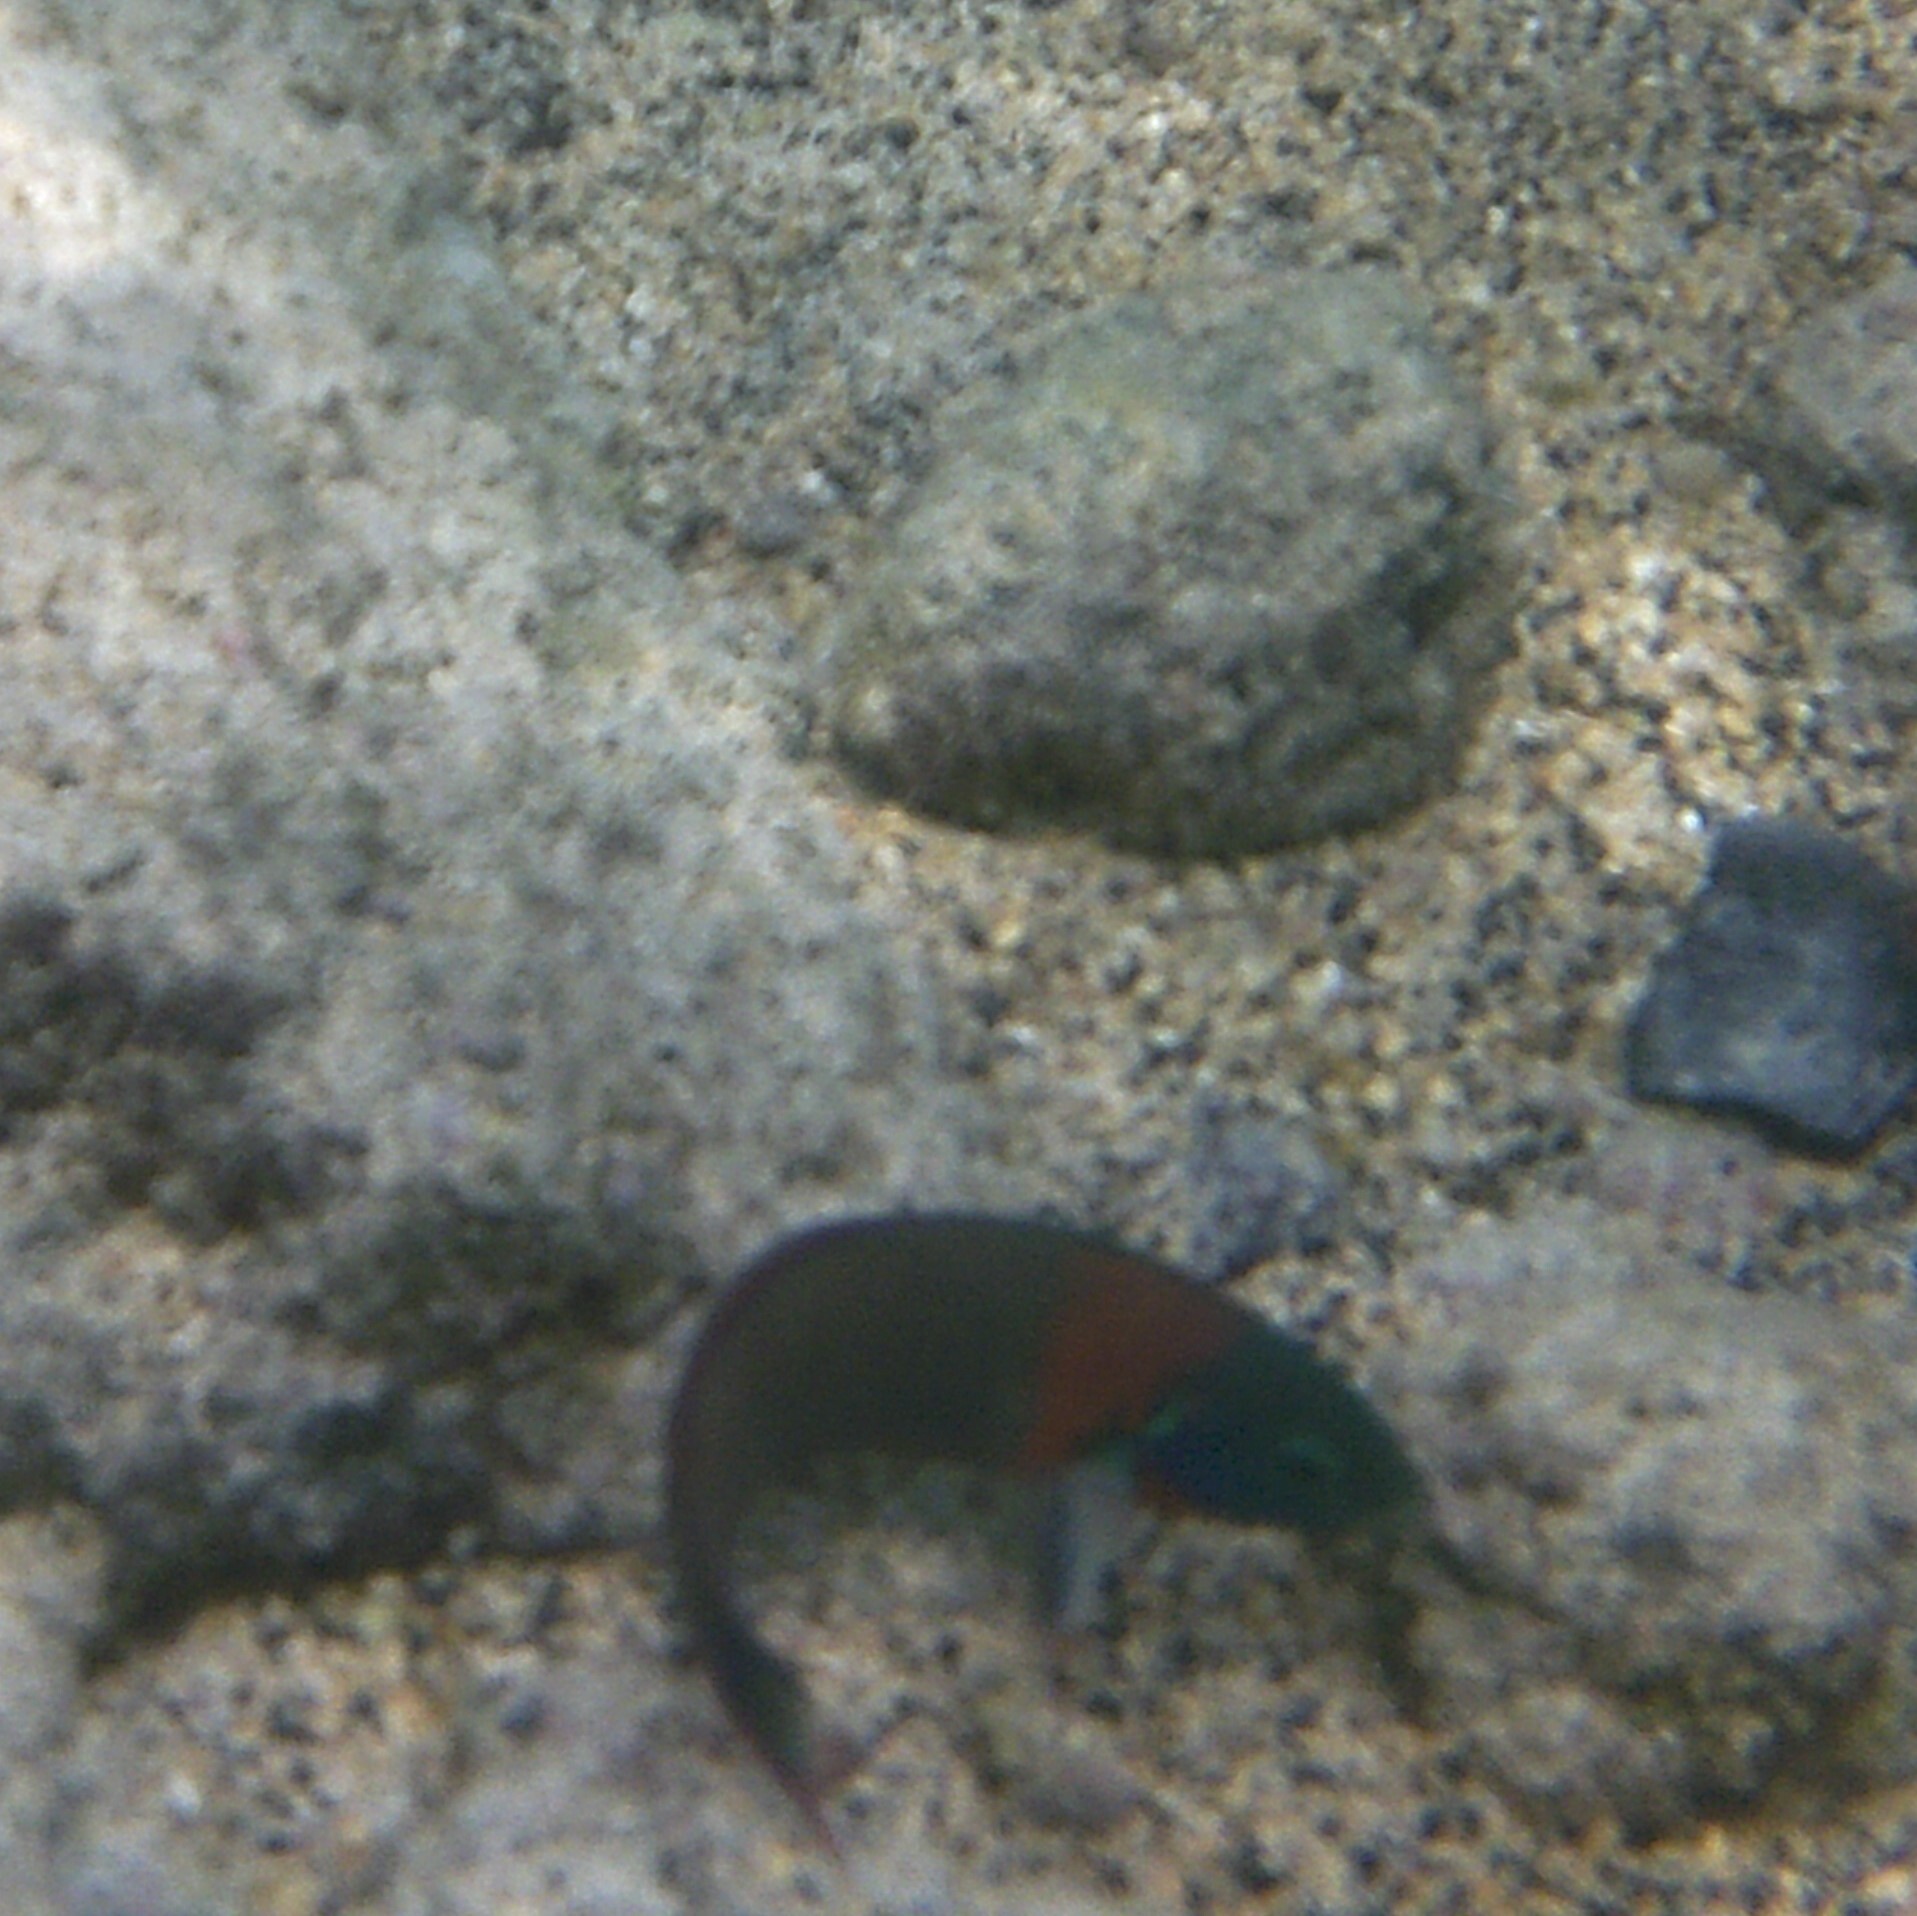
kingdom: Animalia
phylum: Chordata
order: Perciformes
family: Labridae
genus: Thalassoma
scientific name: Thalassoma duperrey
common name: Saddle wrasse
